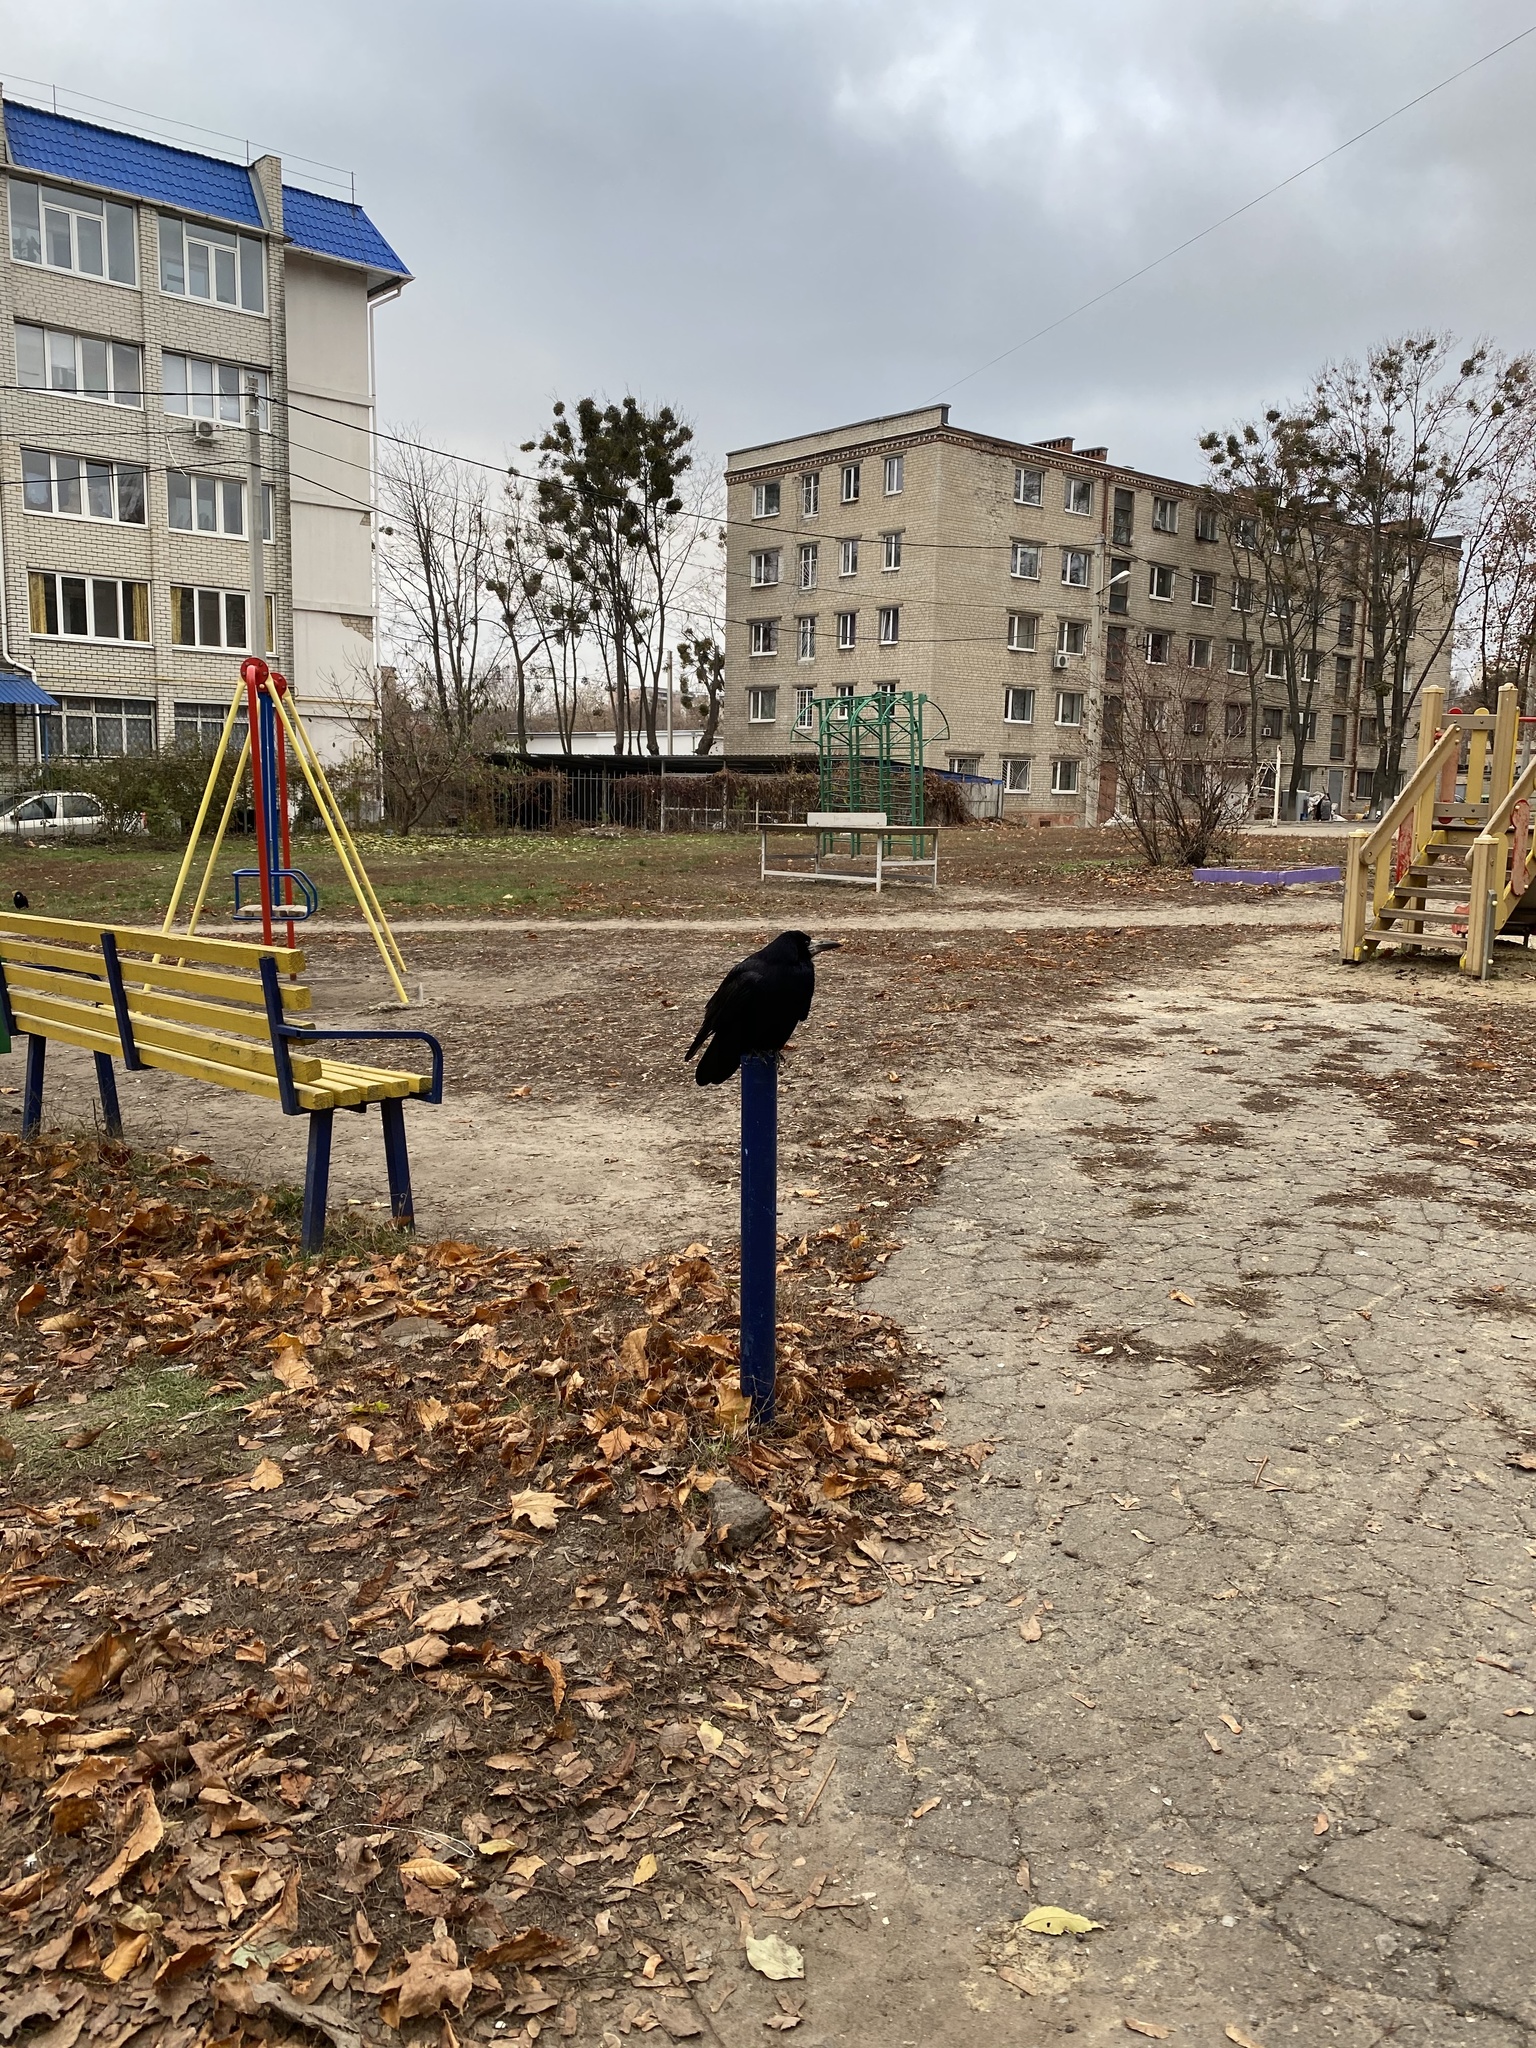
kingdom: Animalia
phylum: Chordata
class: Aves
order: Passeriformes
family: Corvidae
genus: Corvus
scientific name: Corvus frugilegus
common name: Rook
